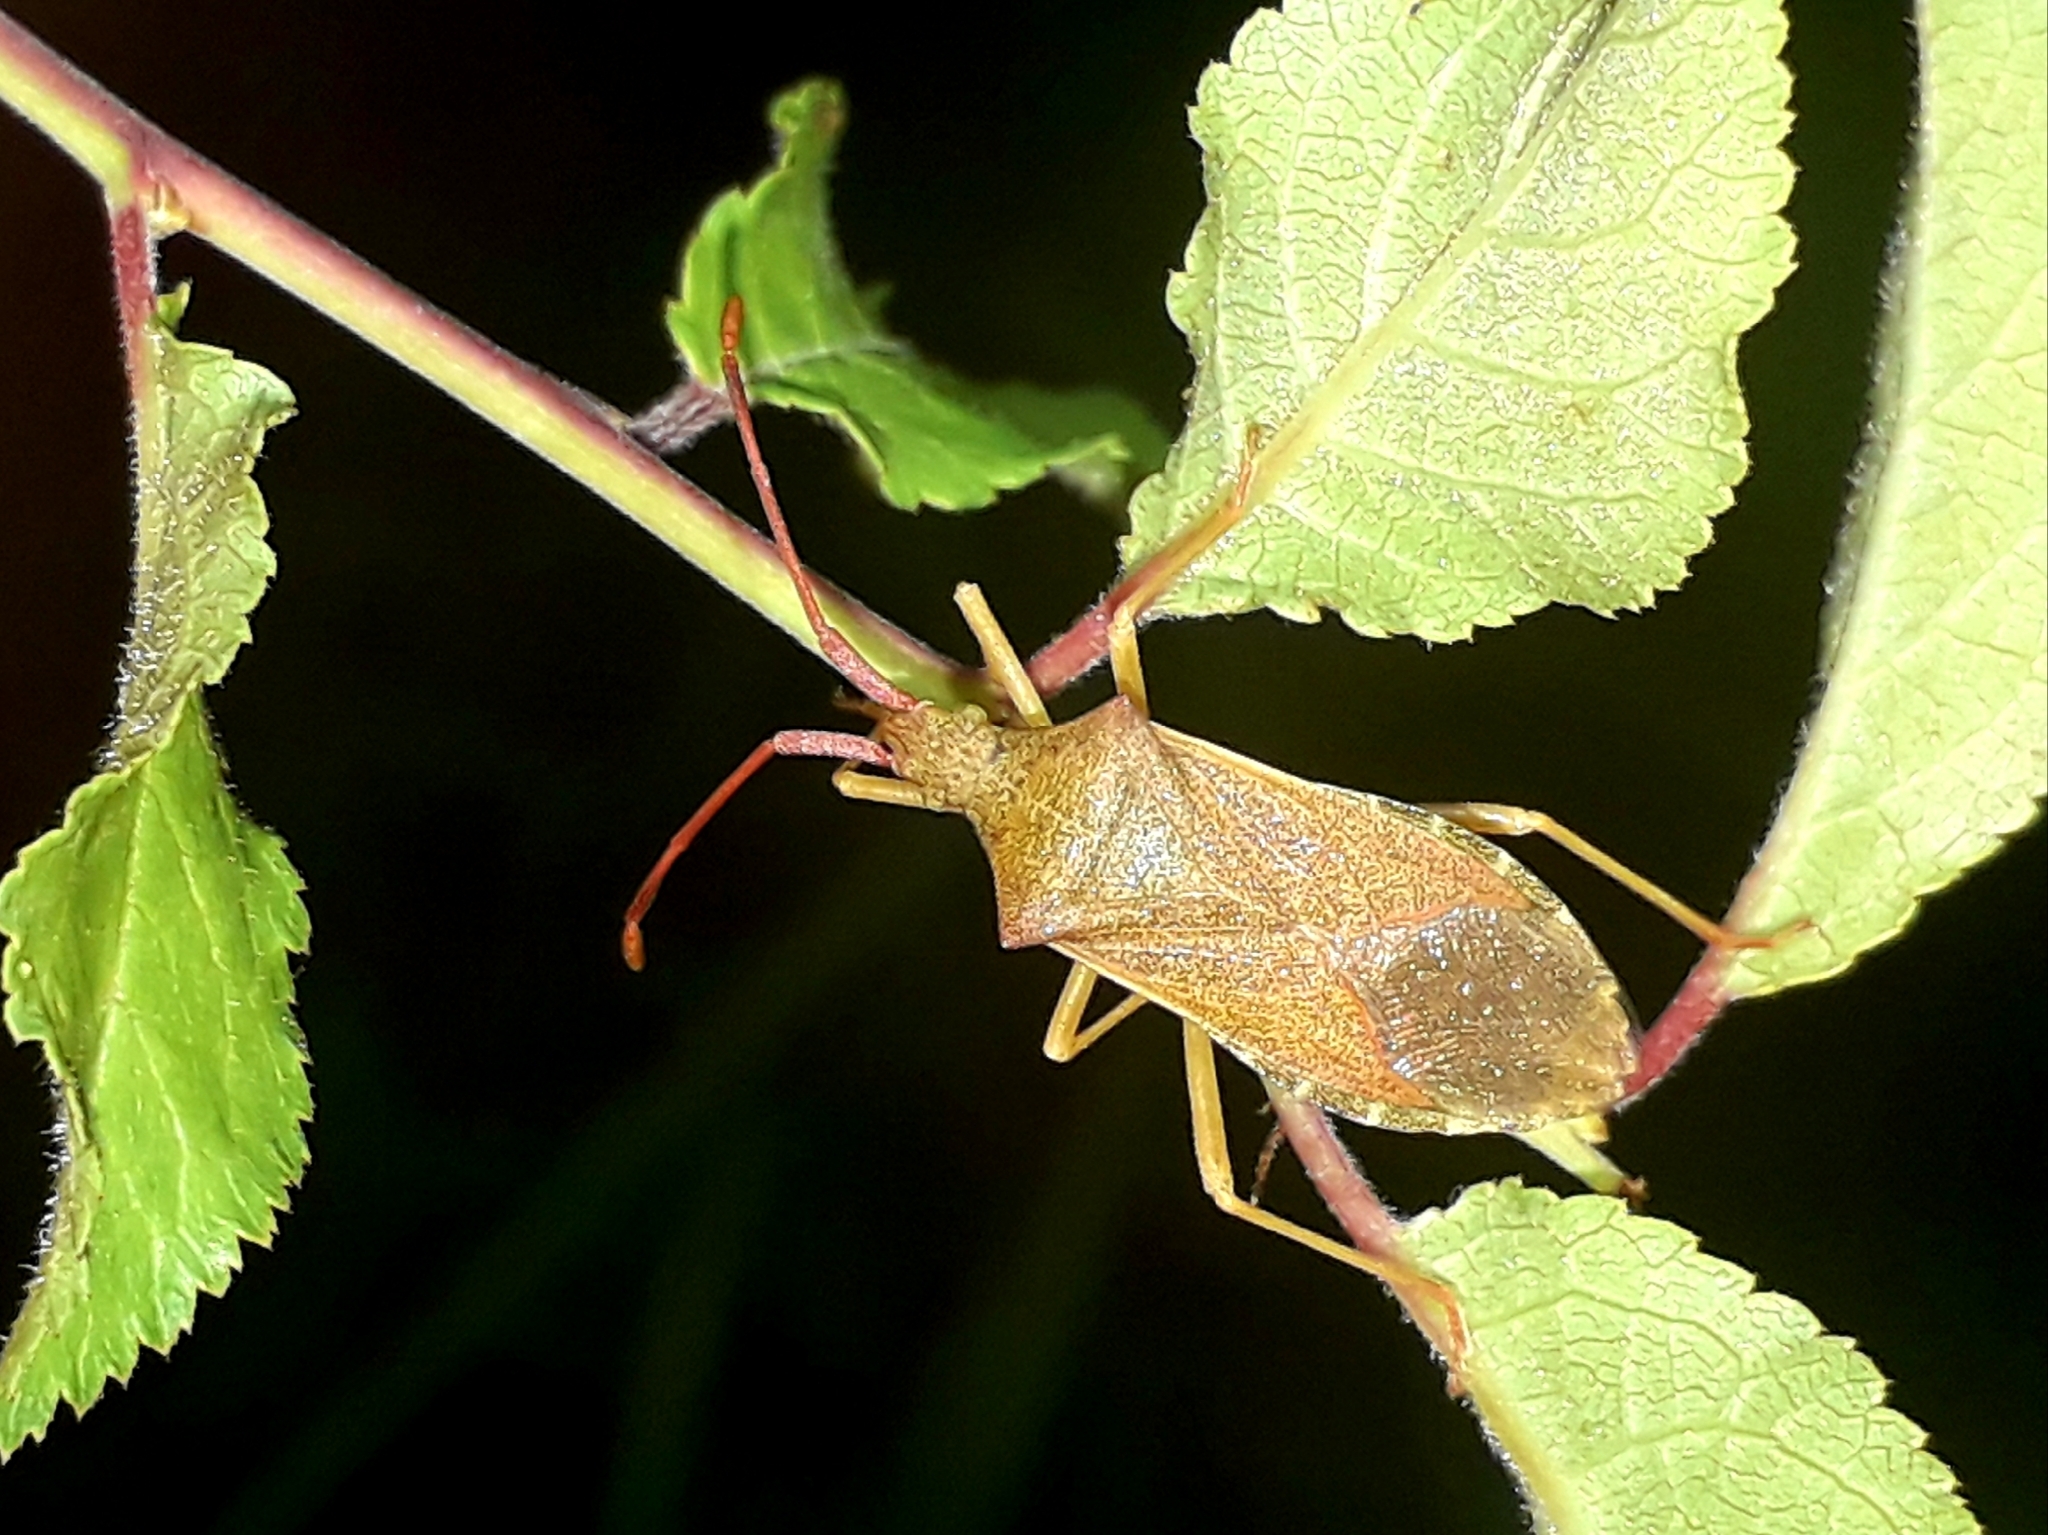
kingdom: Animalia
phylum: Arthropoda
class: Insecta
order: Hemiptera
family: Coreidae
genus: Gonocerus
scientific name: Gonocerus acuteangulatus
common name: Box bug
